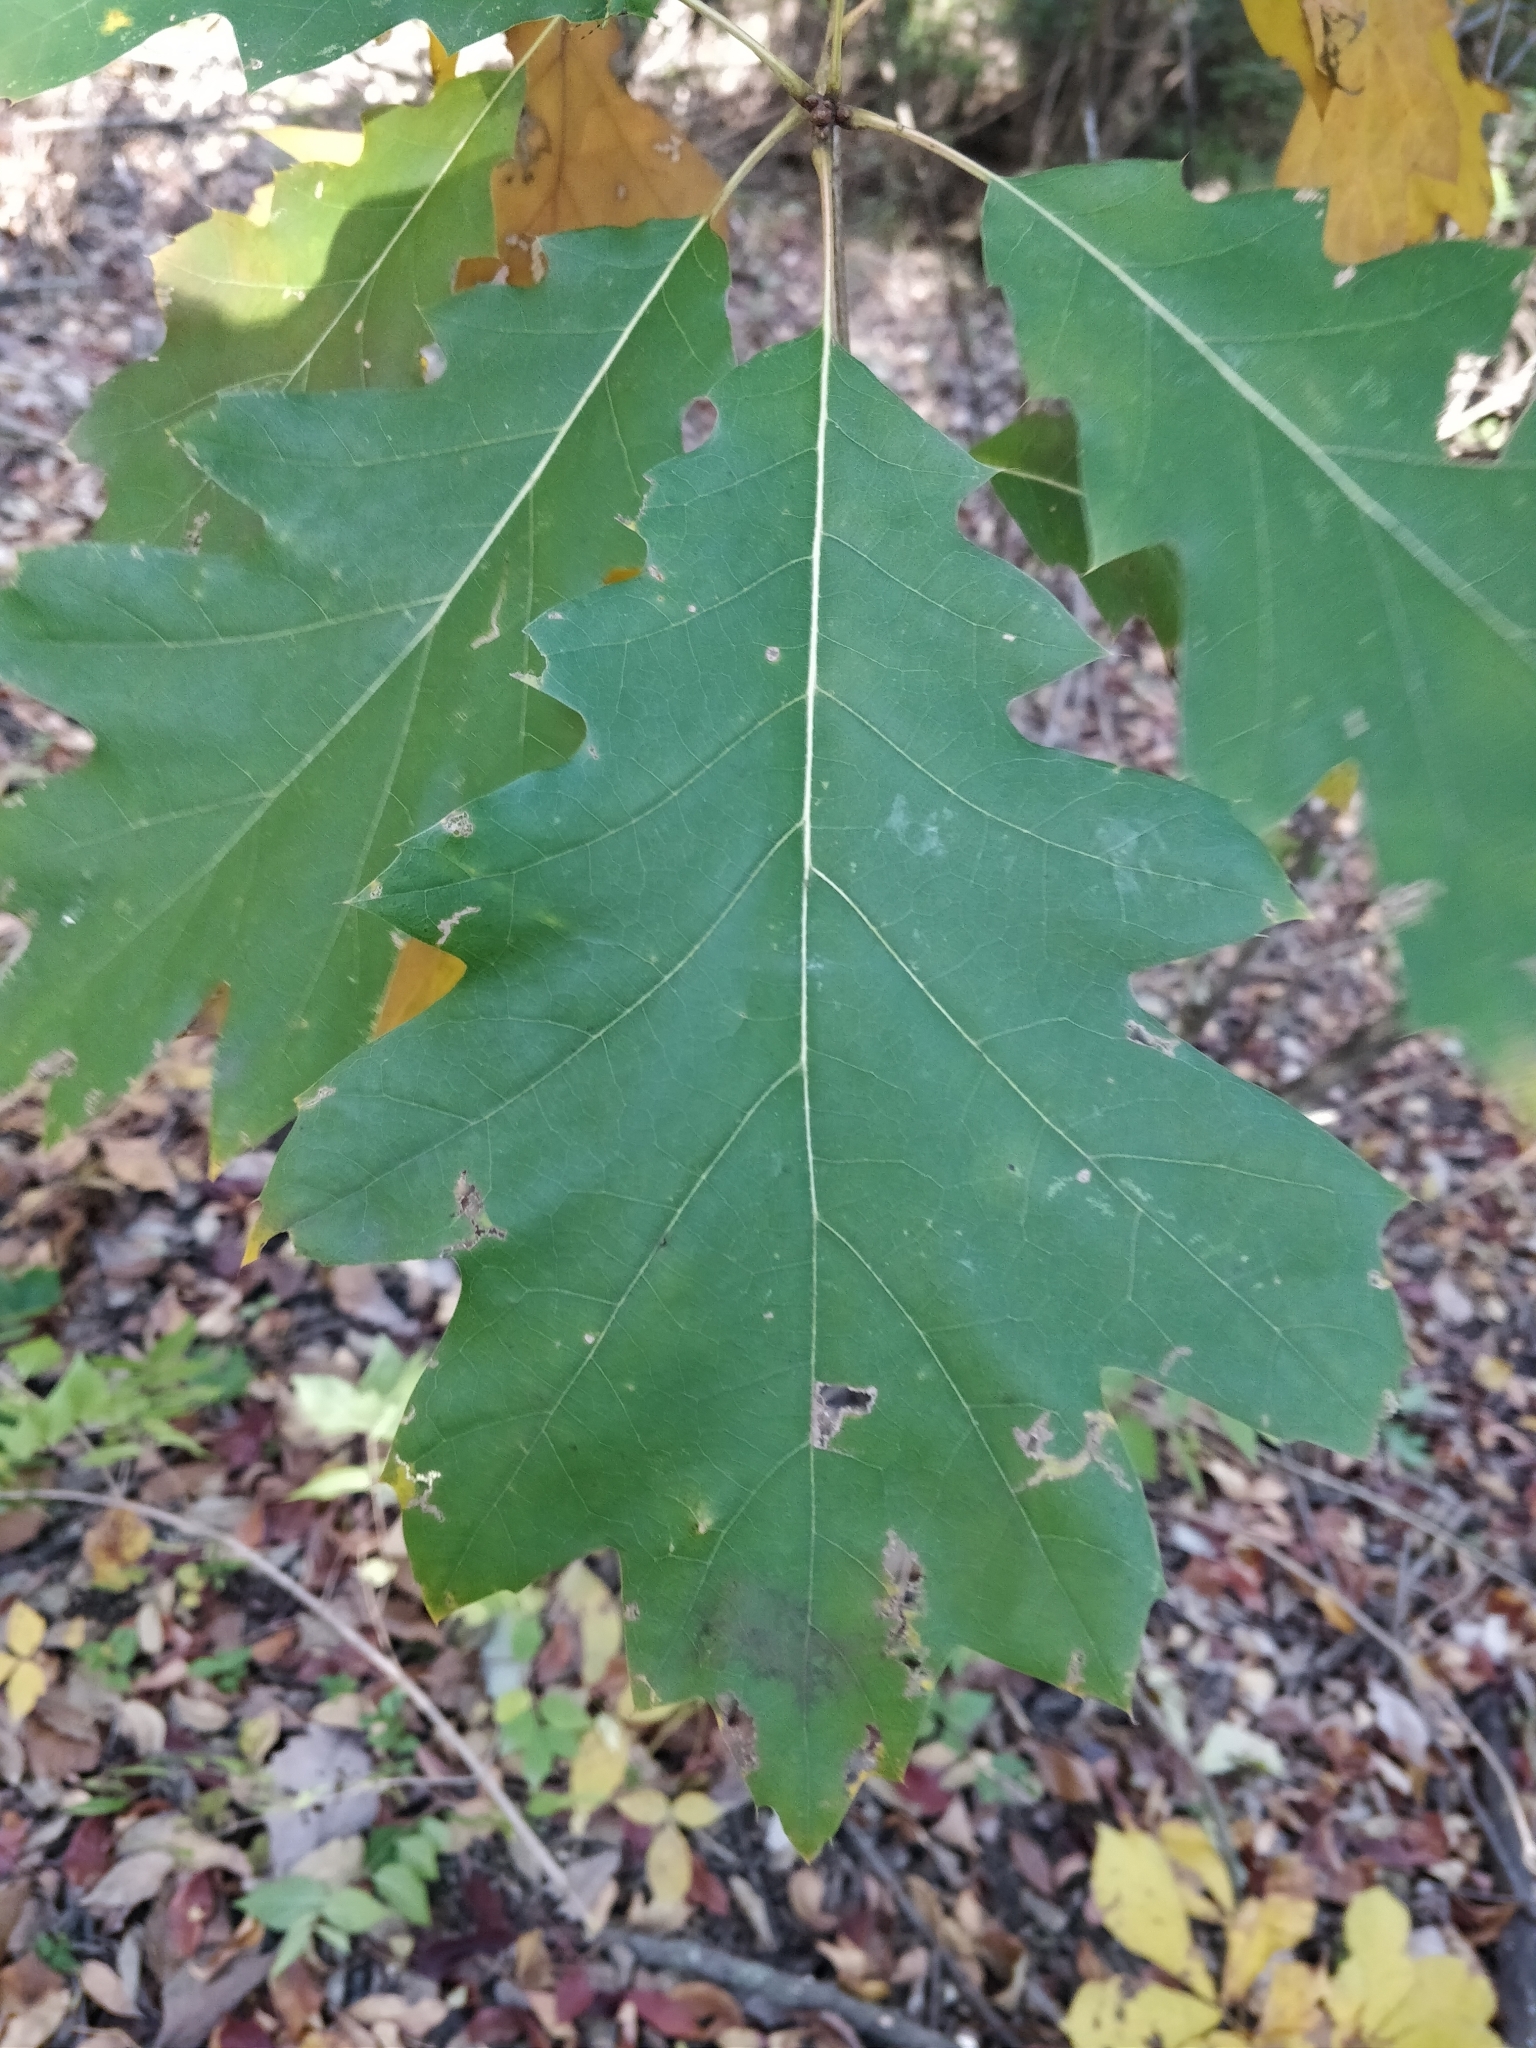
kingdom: Plantae
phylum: Tracheophyta
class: Magnoliopsida
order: Fagales
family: Fagaceae
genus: Quercus
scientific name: Quercus rubra
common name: Red oak
